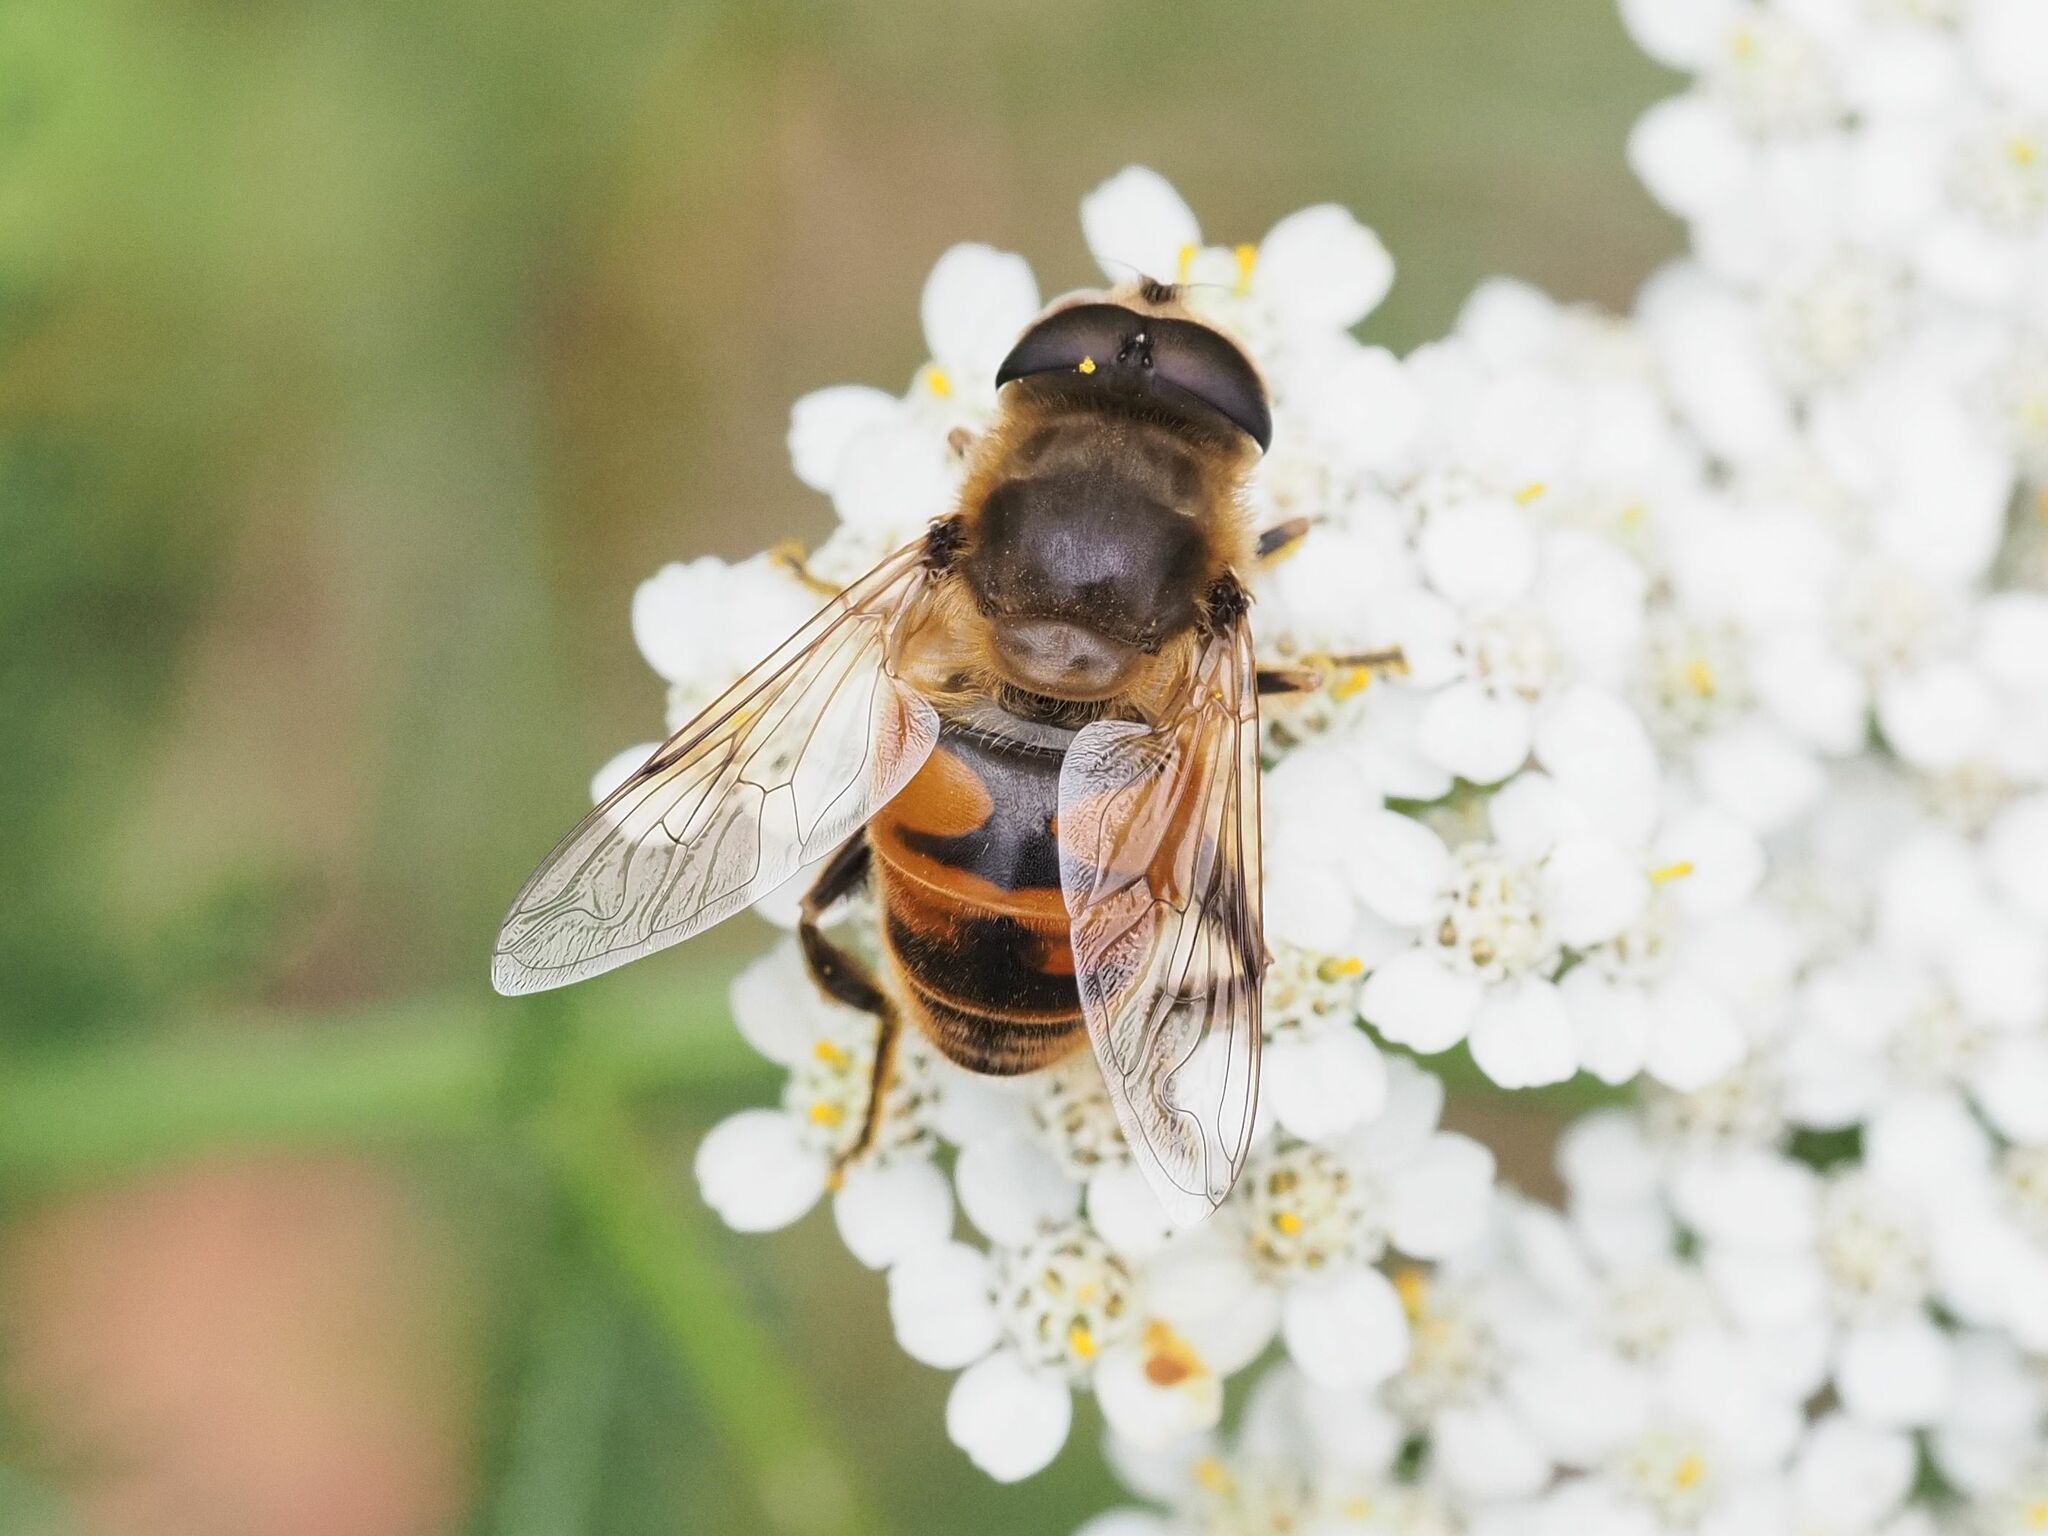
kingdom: Animalia
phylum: Arthropoda
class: Insecta
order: Diptera
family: Syrphidae
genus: Eristalis
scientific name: Eristalis tenax
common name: Drone fly
